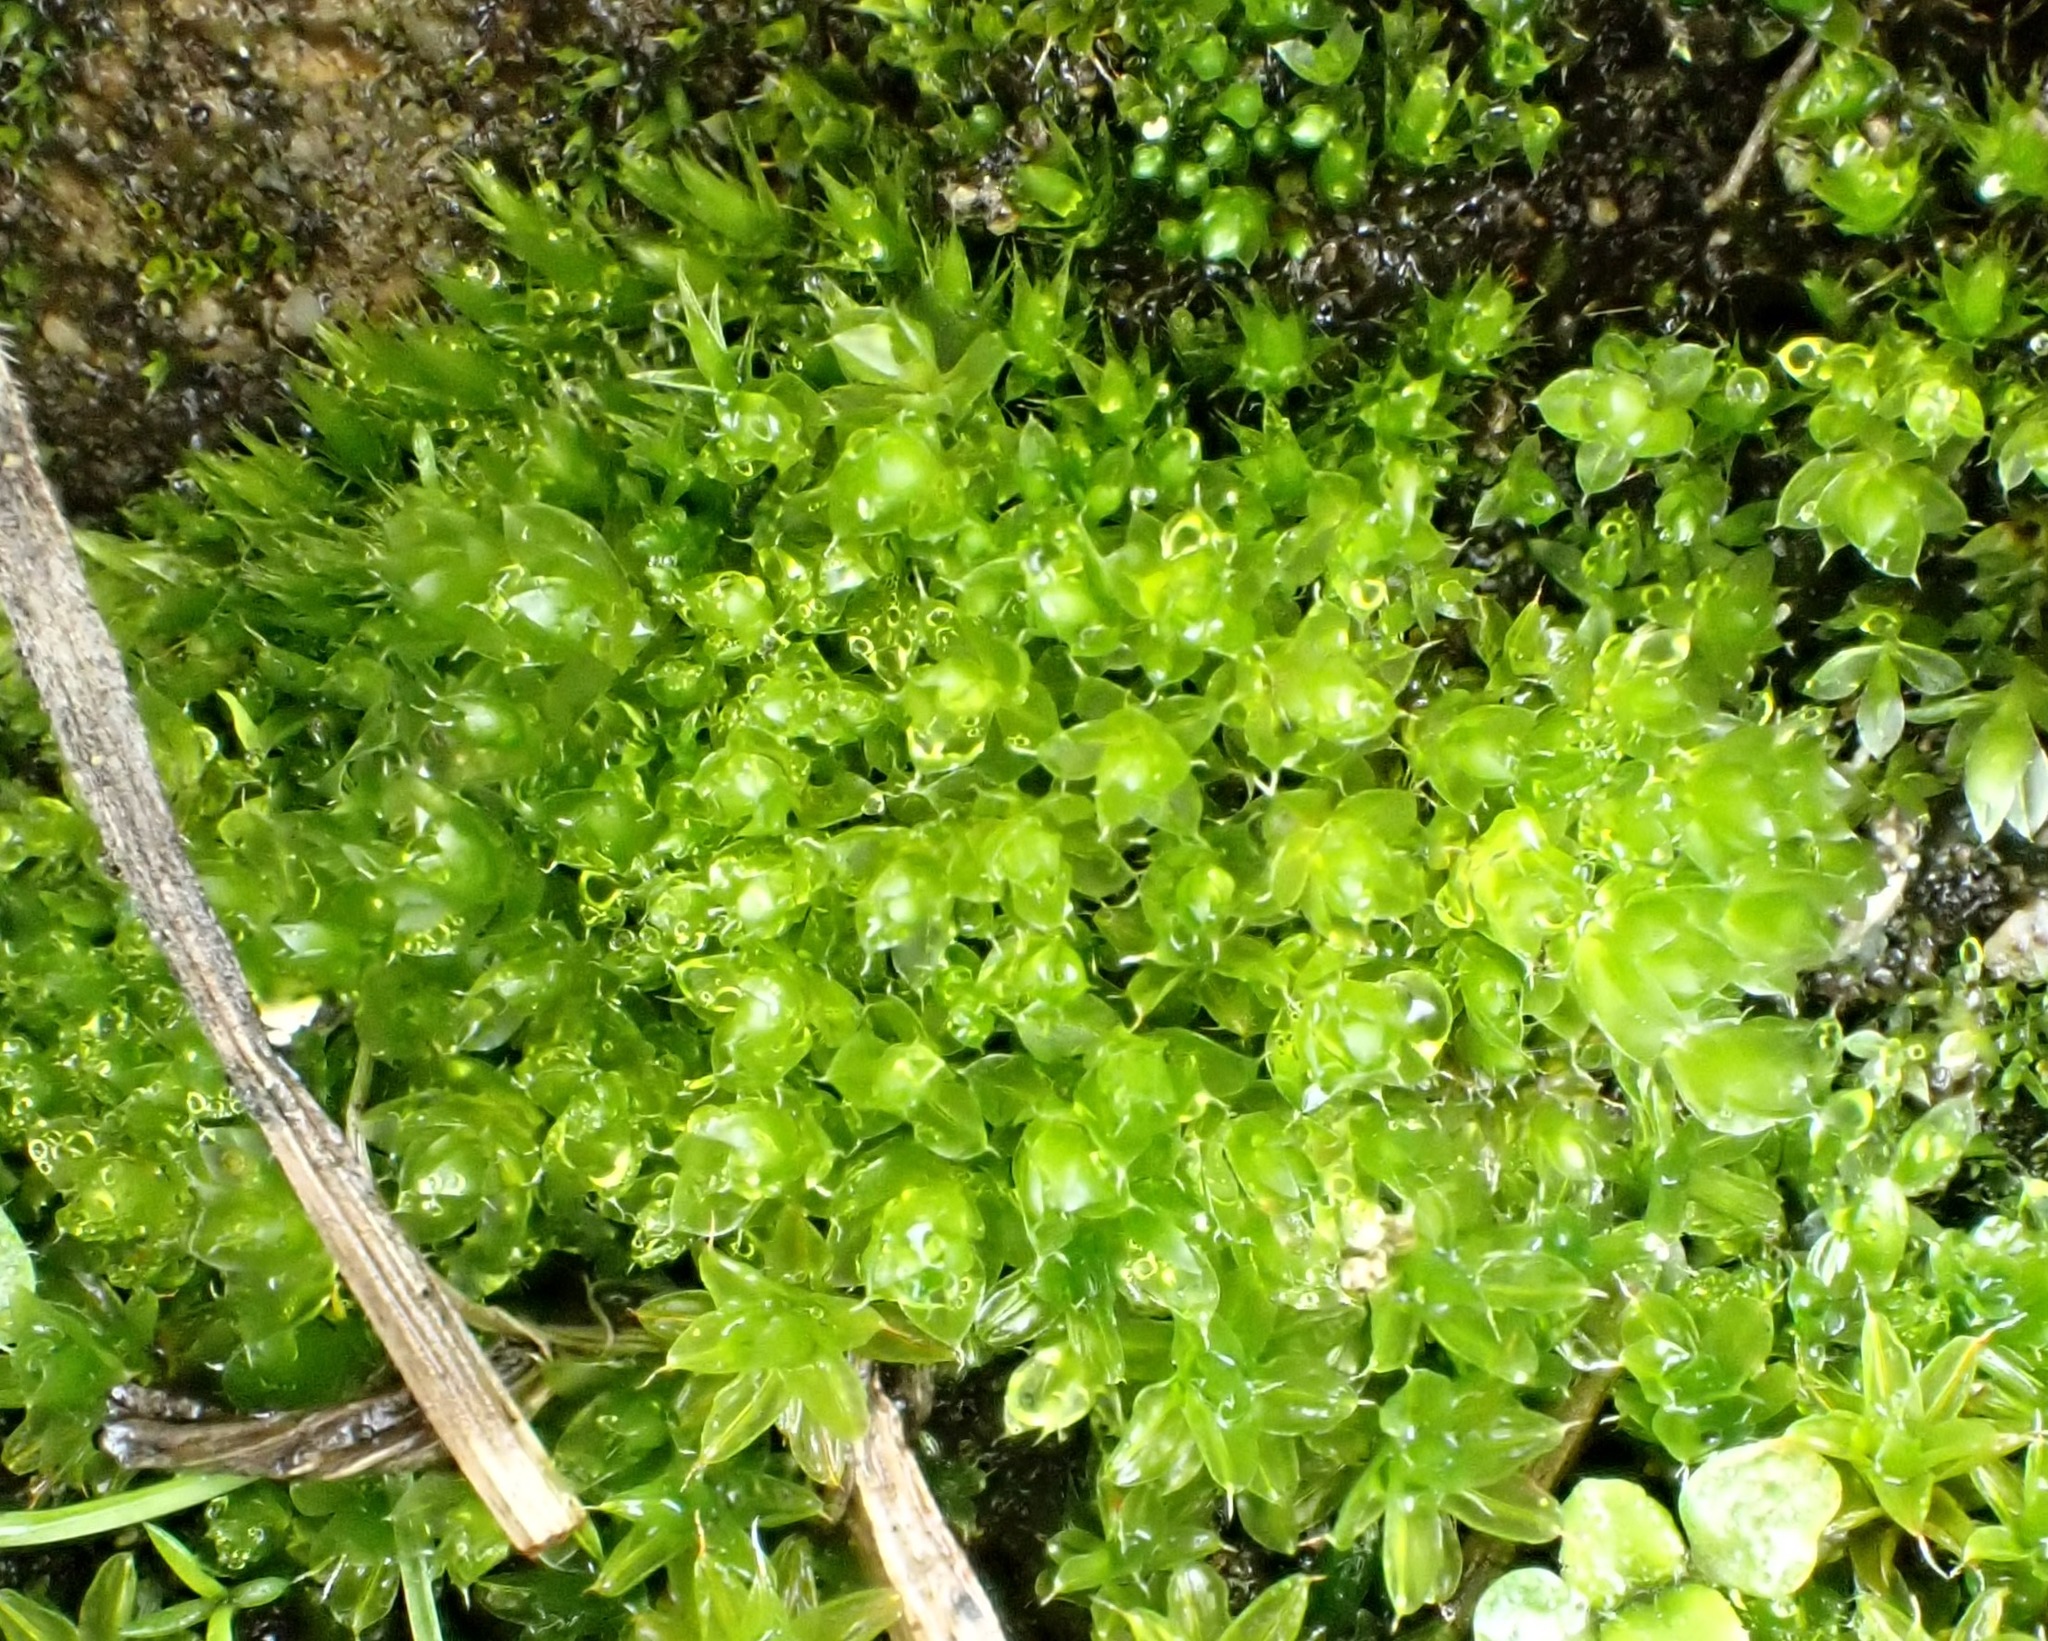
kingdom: Plantae
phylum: Bryophyta
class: Bryopsida
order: Bryales
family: Bryaceae
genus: Rosulabryum
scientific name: Rosulabryum capillare
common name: Capillary thread-moss
